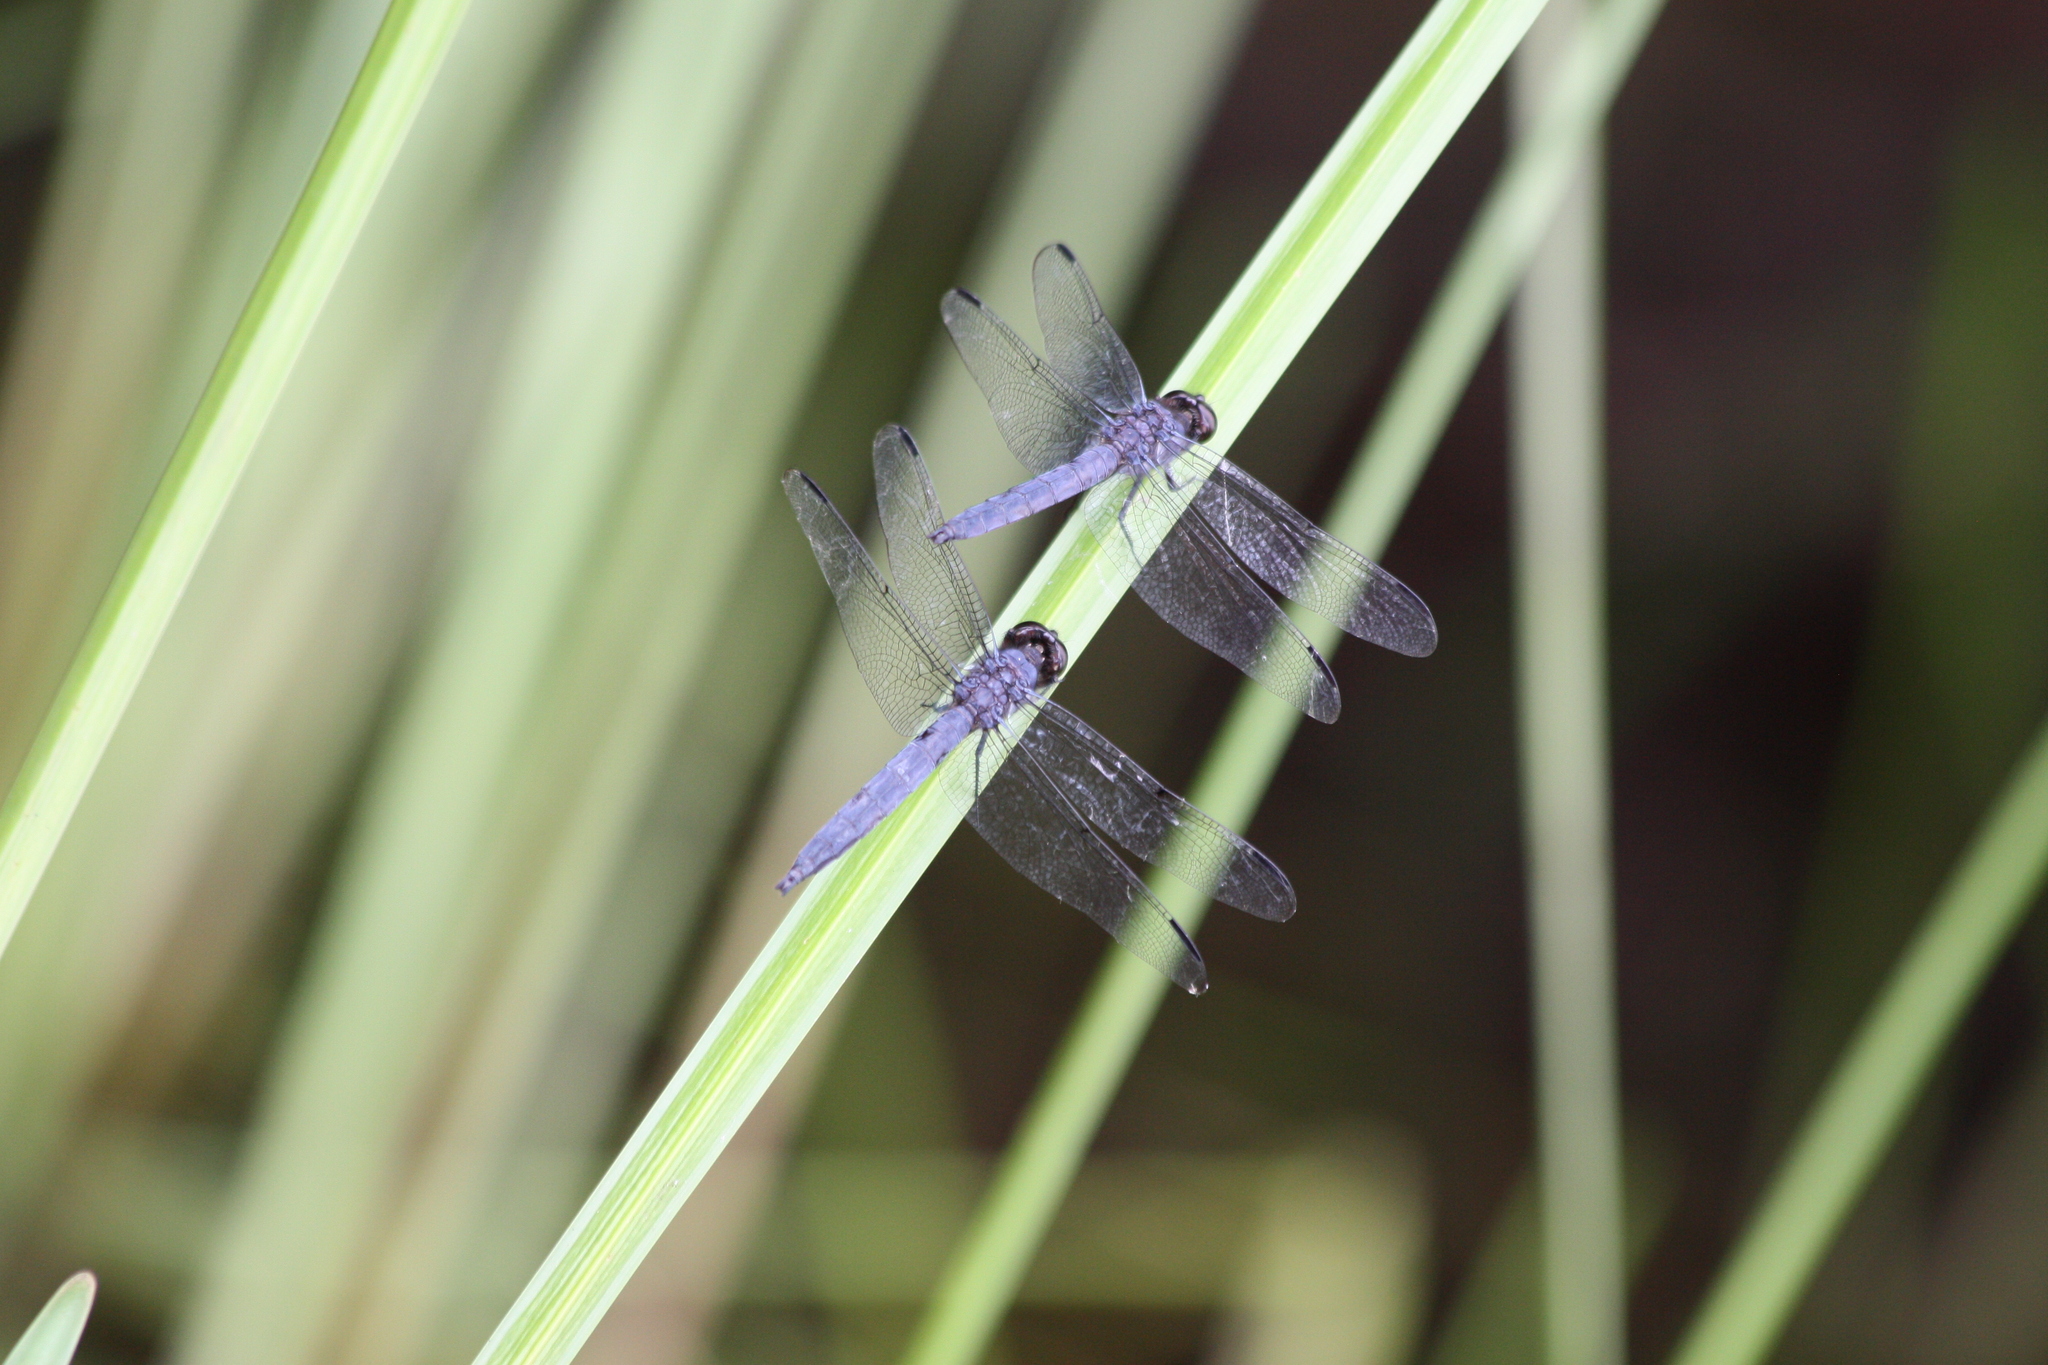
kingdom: Animalia
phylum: Arthropoda
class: Insecta
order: Odonata
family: Libellulidae
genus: Libellula
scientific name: Libellula incesta
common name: Slaty skimmer
